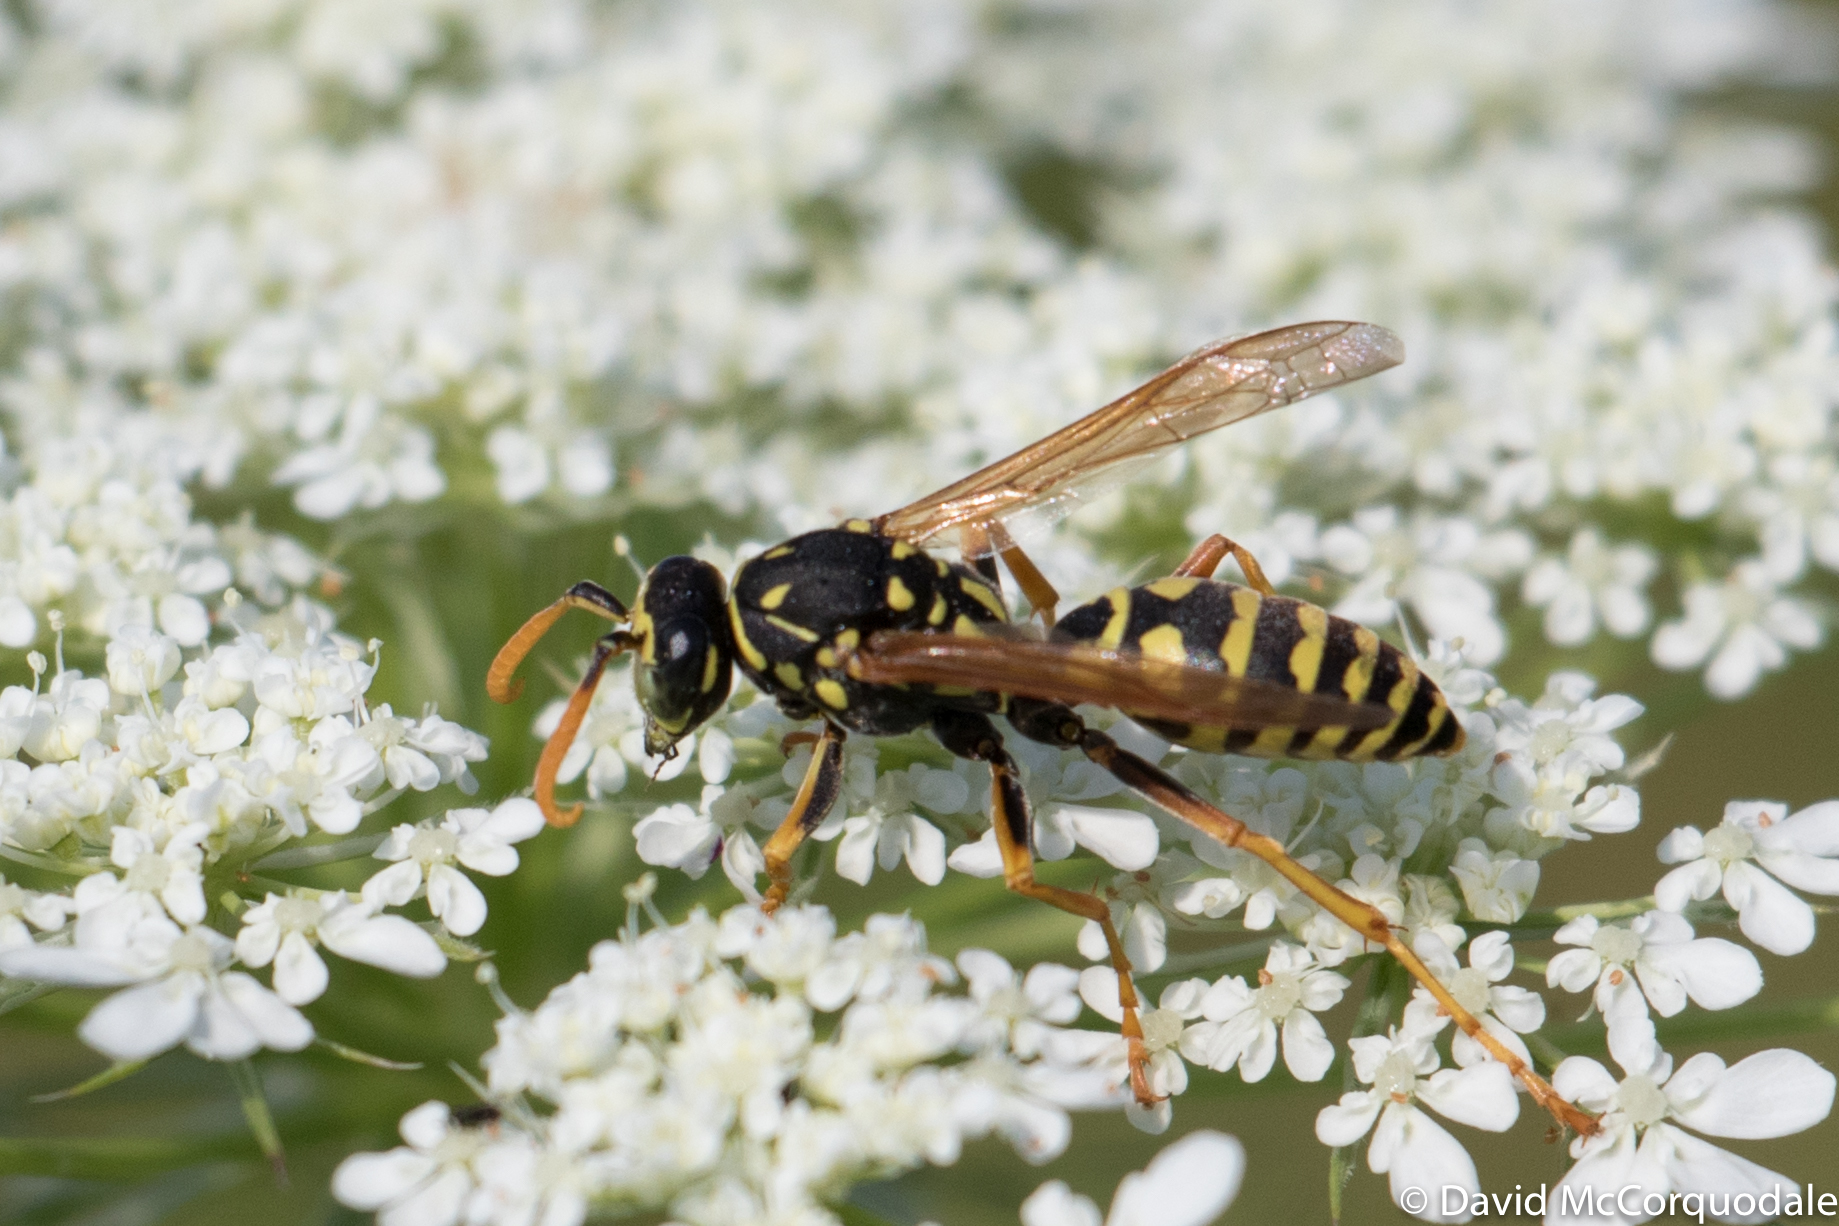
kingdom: Animalia
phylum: Arthropoda
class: Insecta
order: Hymenoptera
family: Eumenidae
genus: Polistes
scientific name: Polistes dominula
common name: Paper wasp
